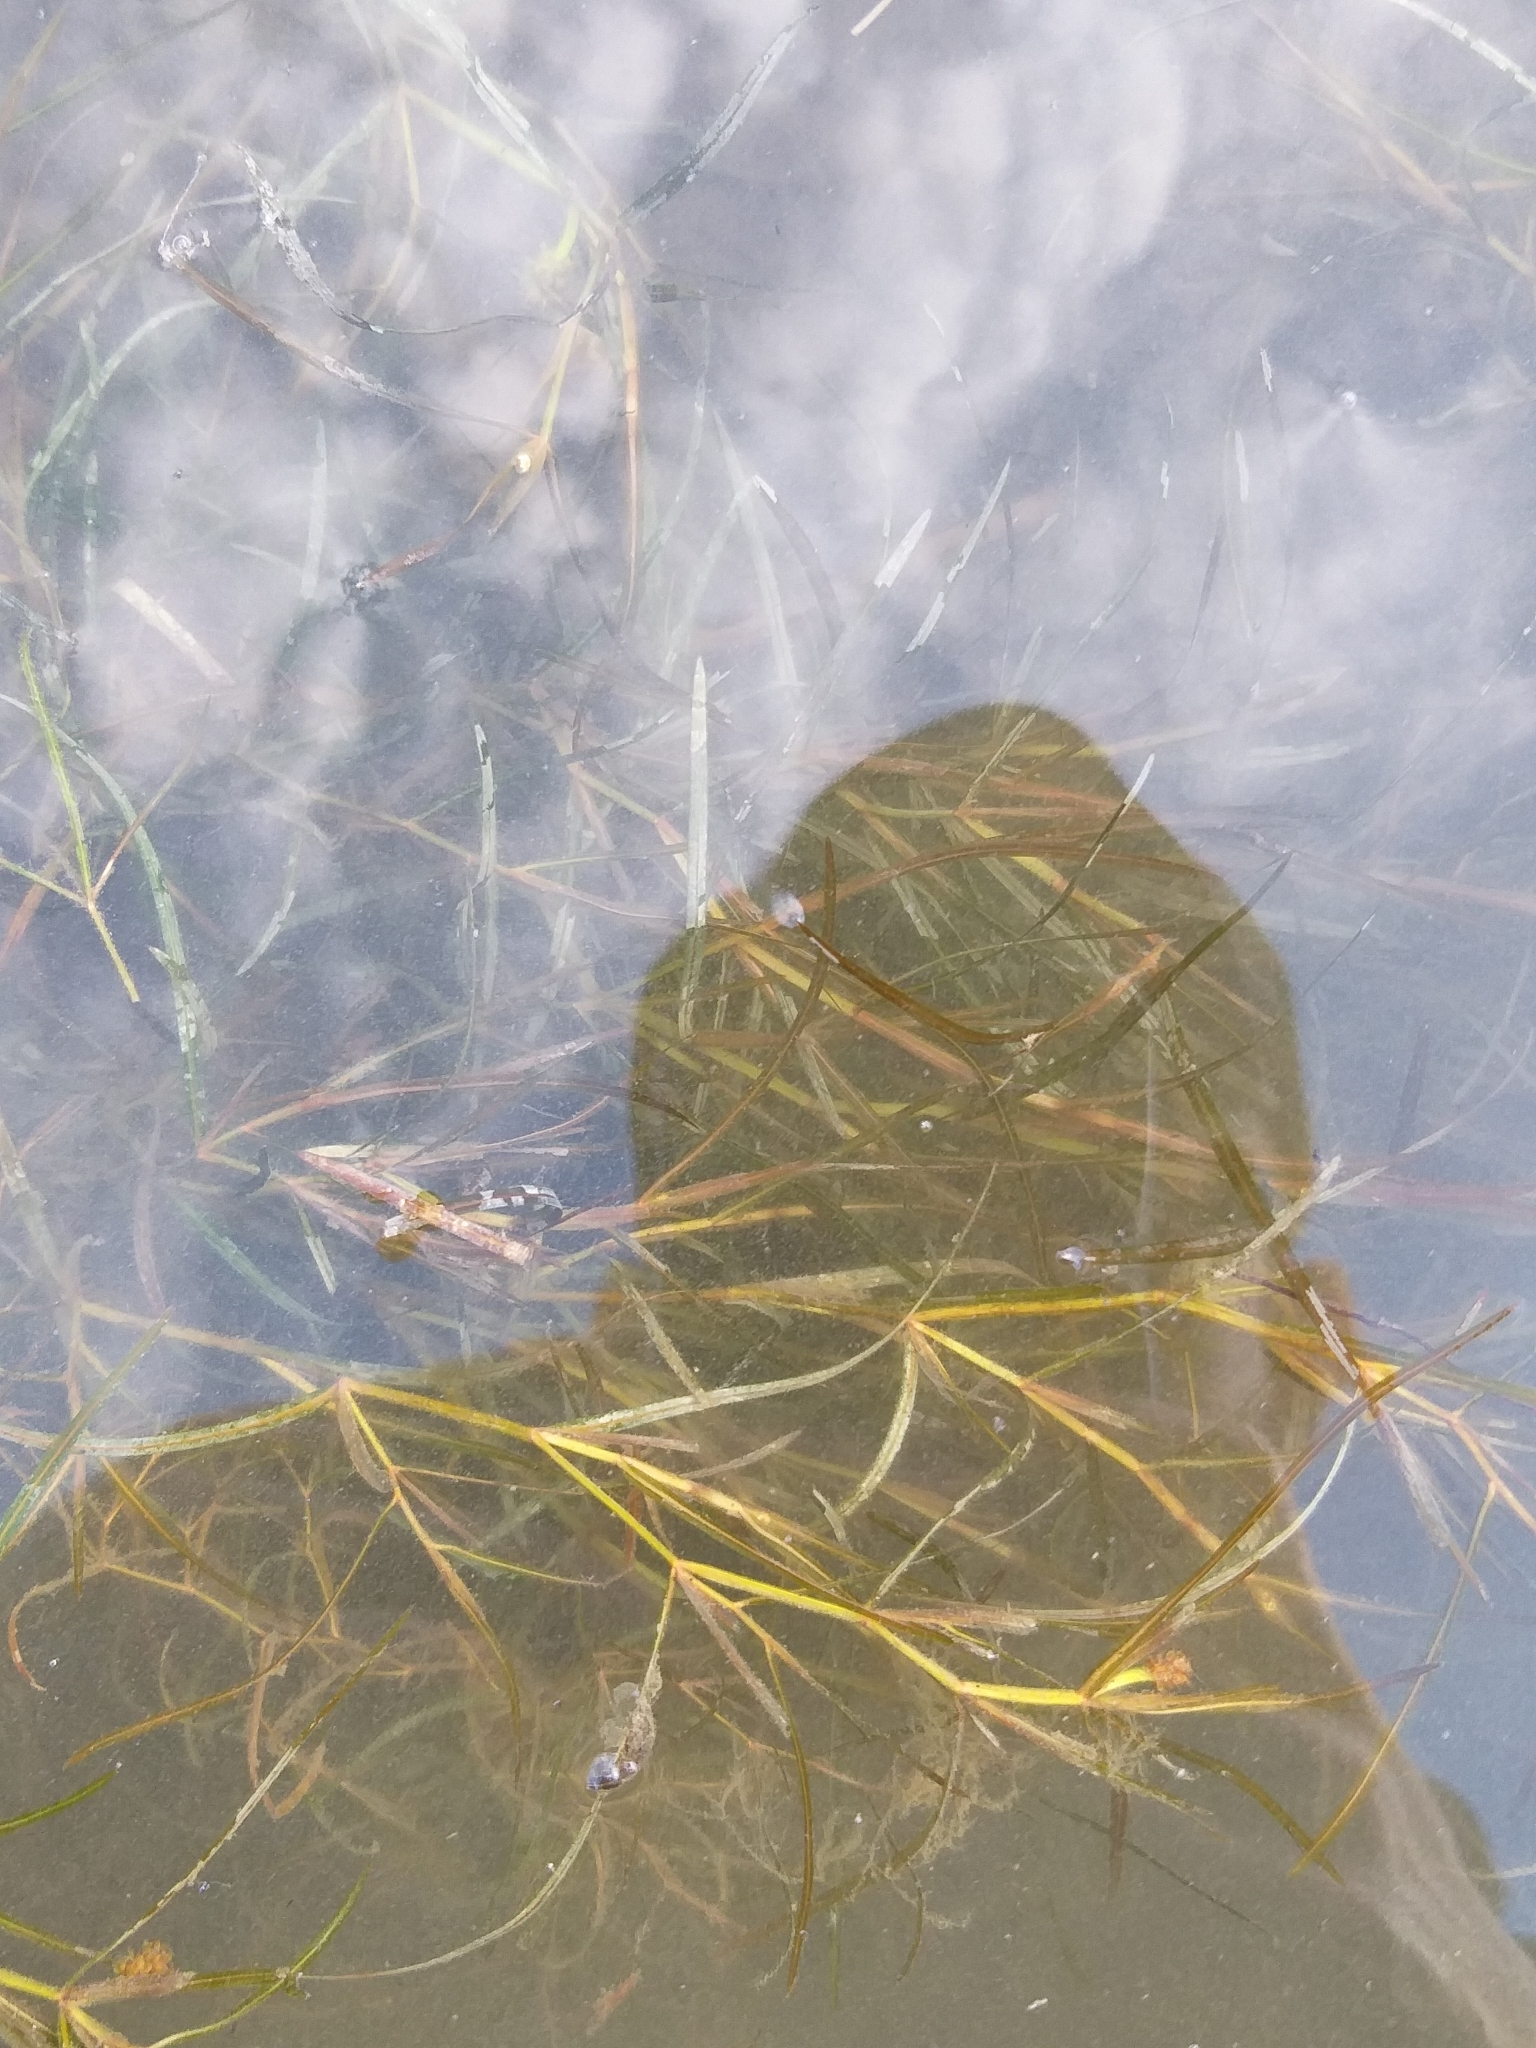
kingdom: Plantae
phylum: Tracheophyta
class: Liliopsida
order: Alismatales
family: Potamogetonaceae
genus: Potamogeton
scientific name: Potamogeton zosteriformis
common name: Eelgrass pondweed
